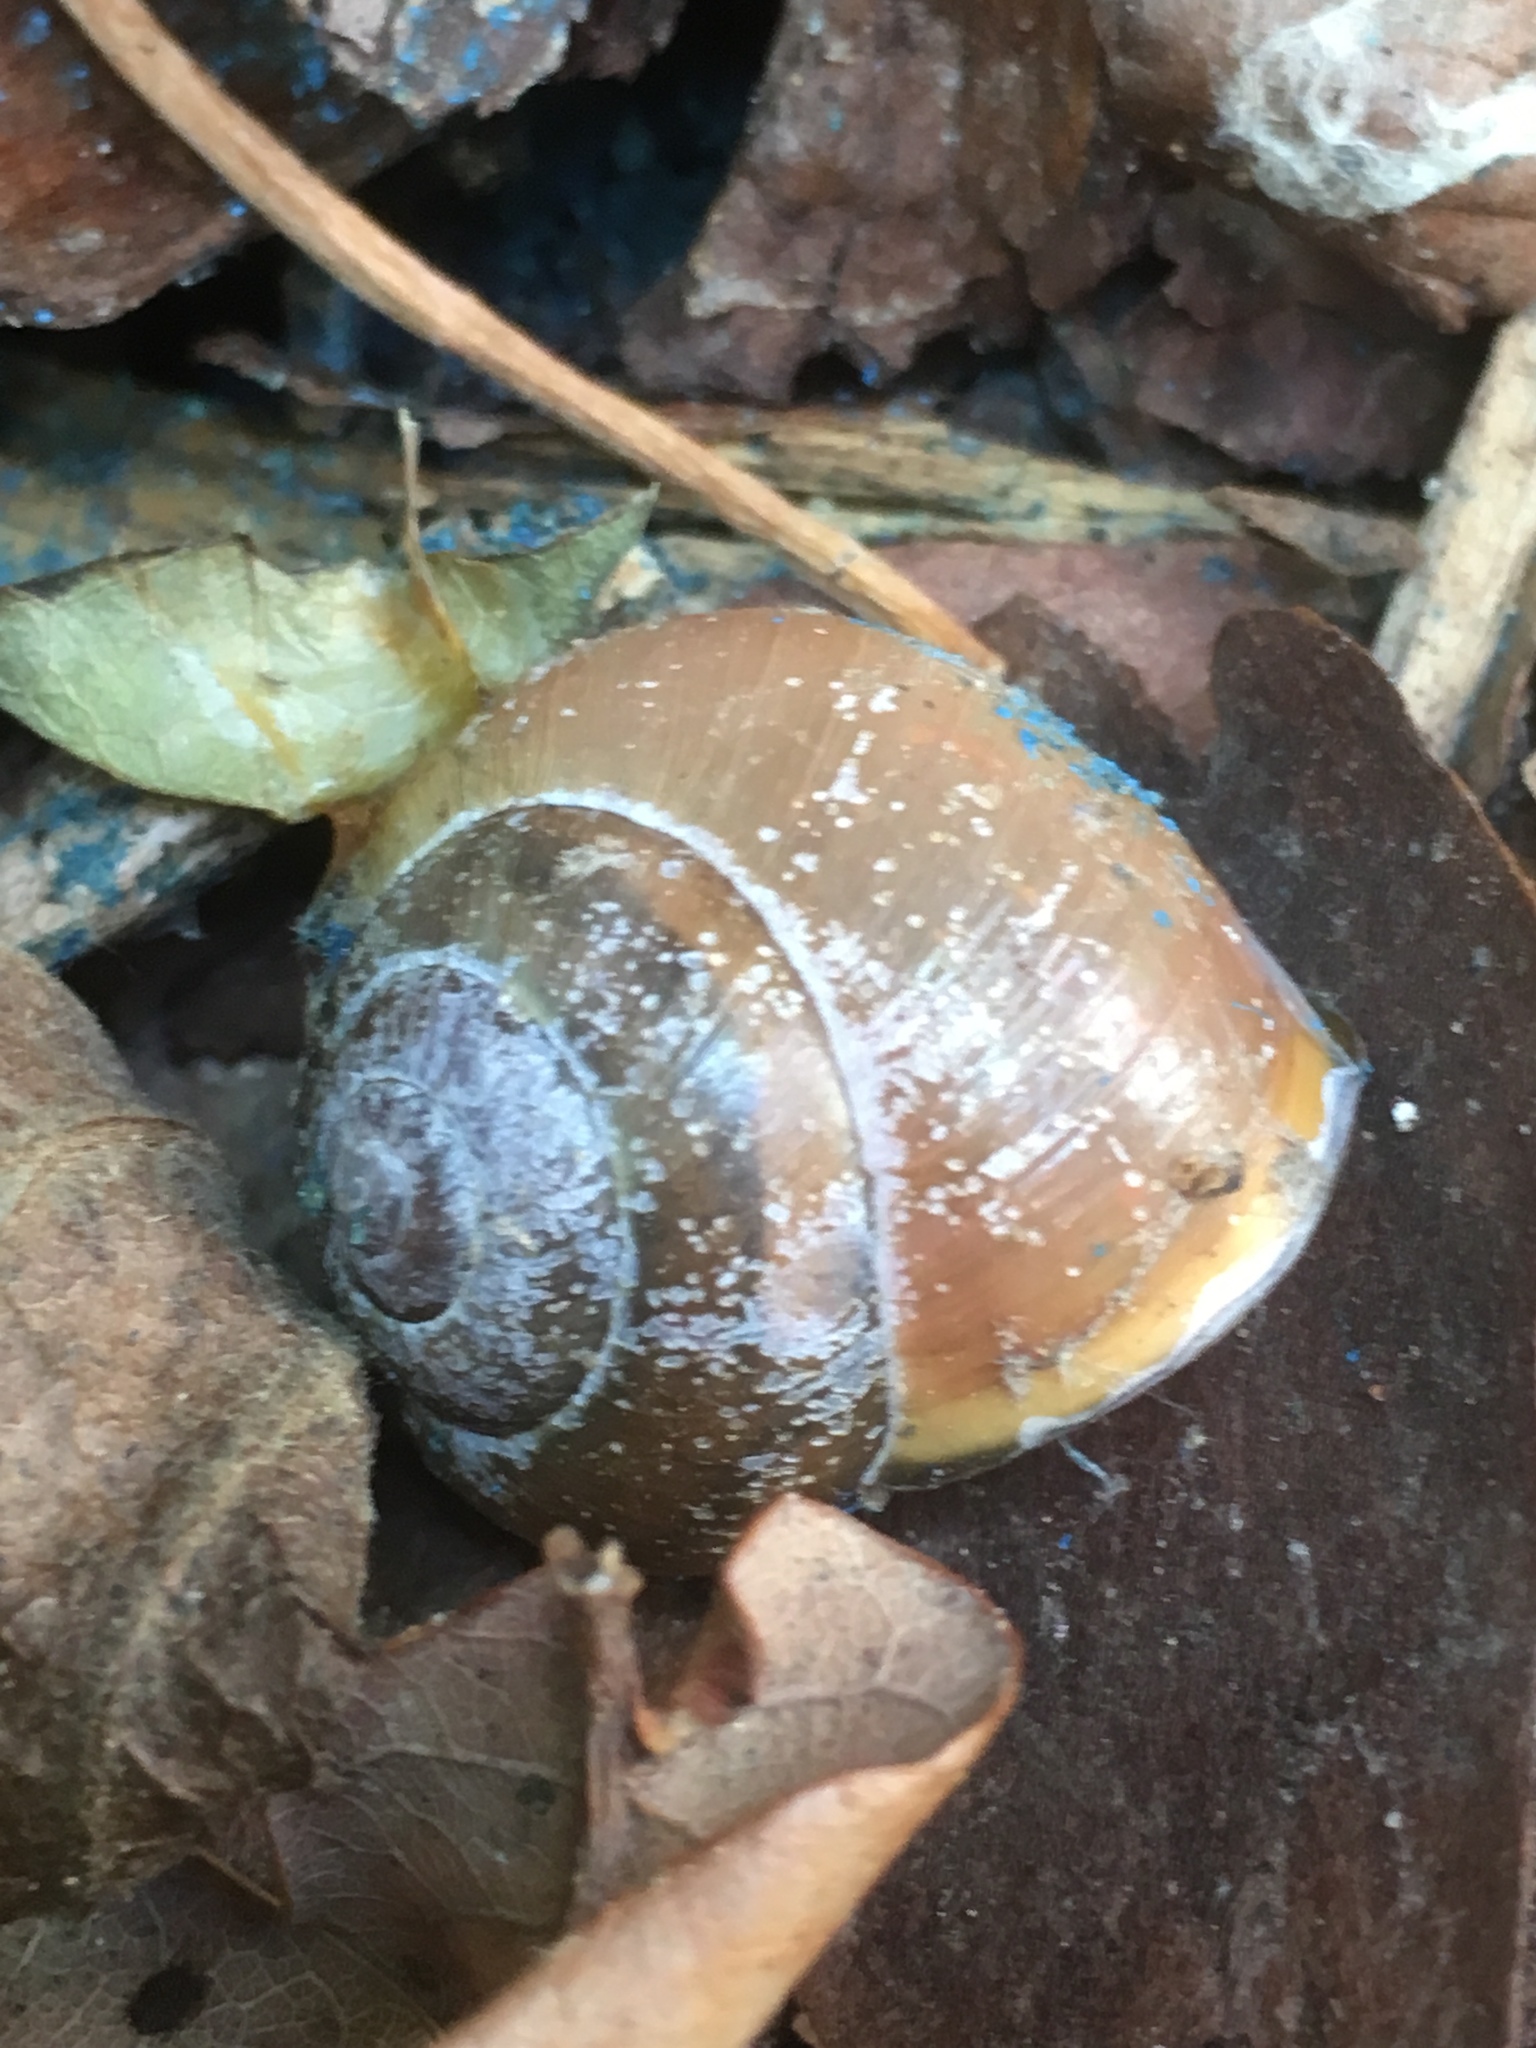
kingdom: Animalia
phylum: Mollusca
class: Gastropoda
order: Stylommatophora
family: Helicidae
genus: Cepaea
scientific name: Cepaea nemoralis
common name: Grovesnail
